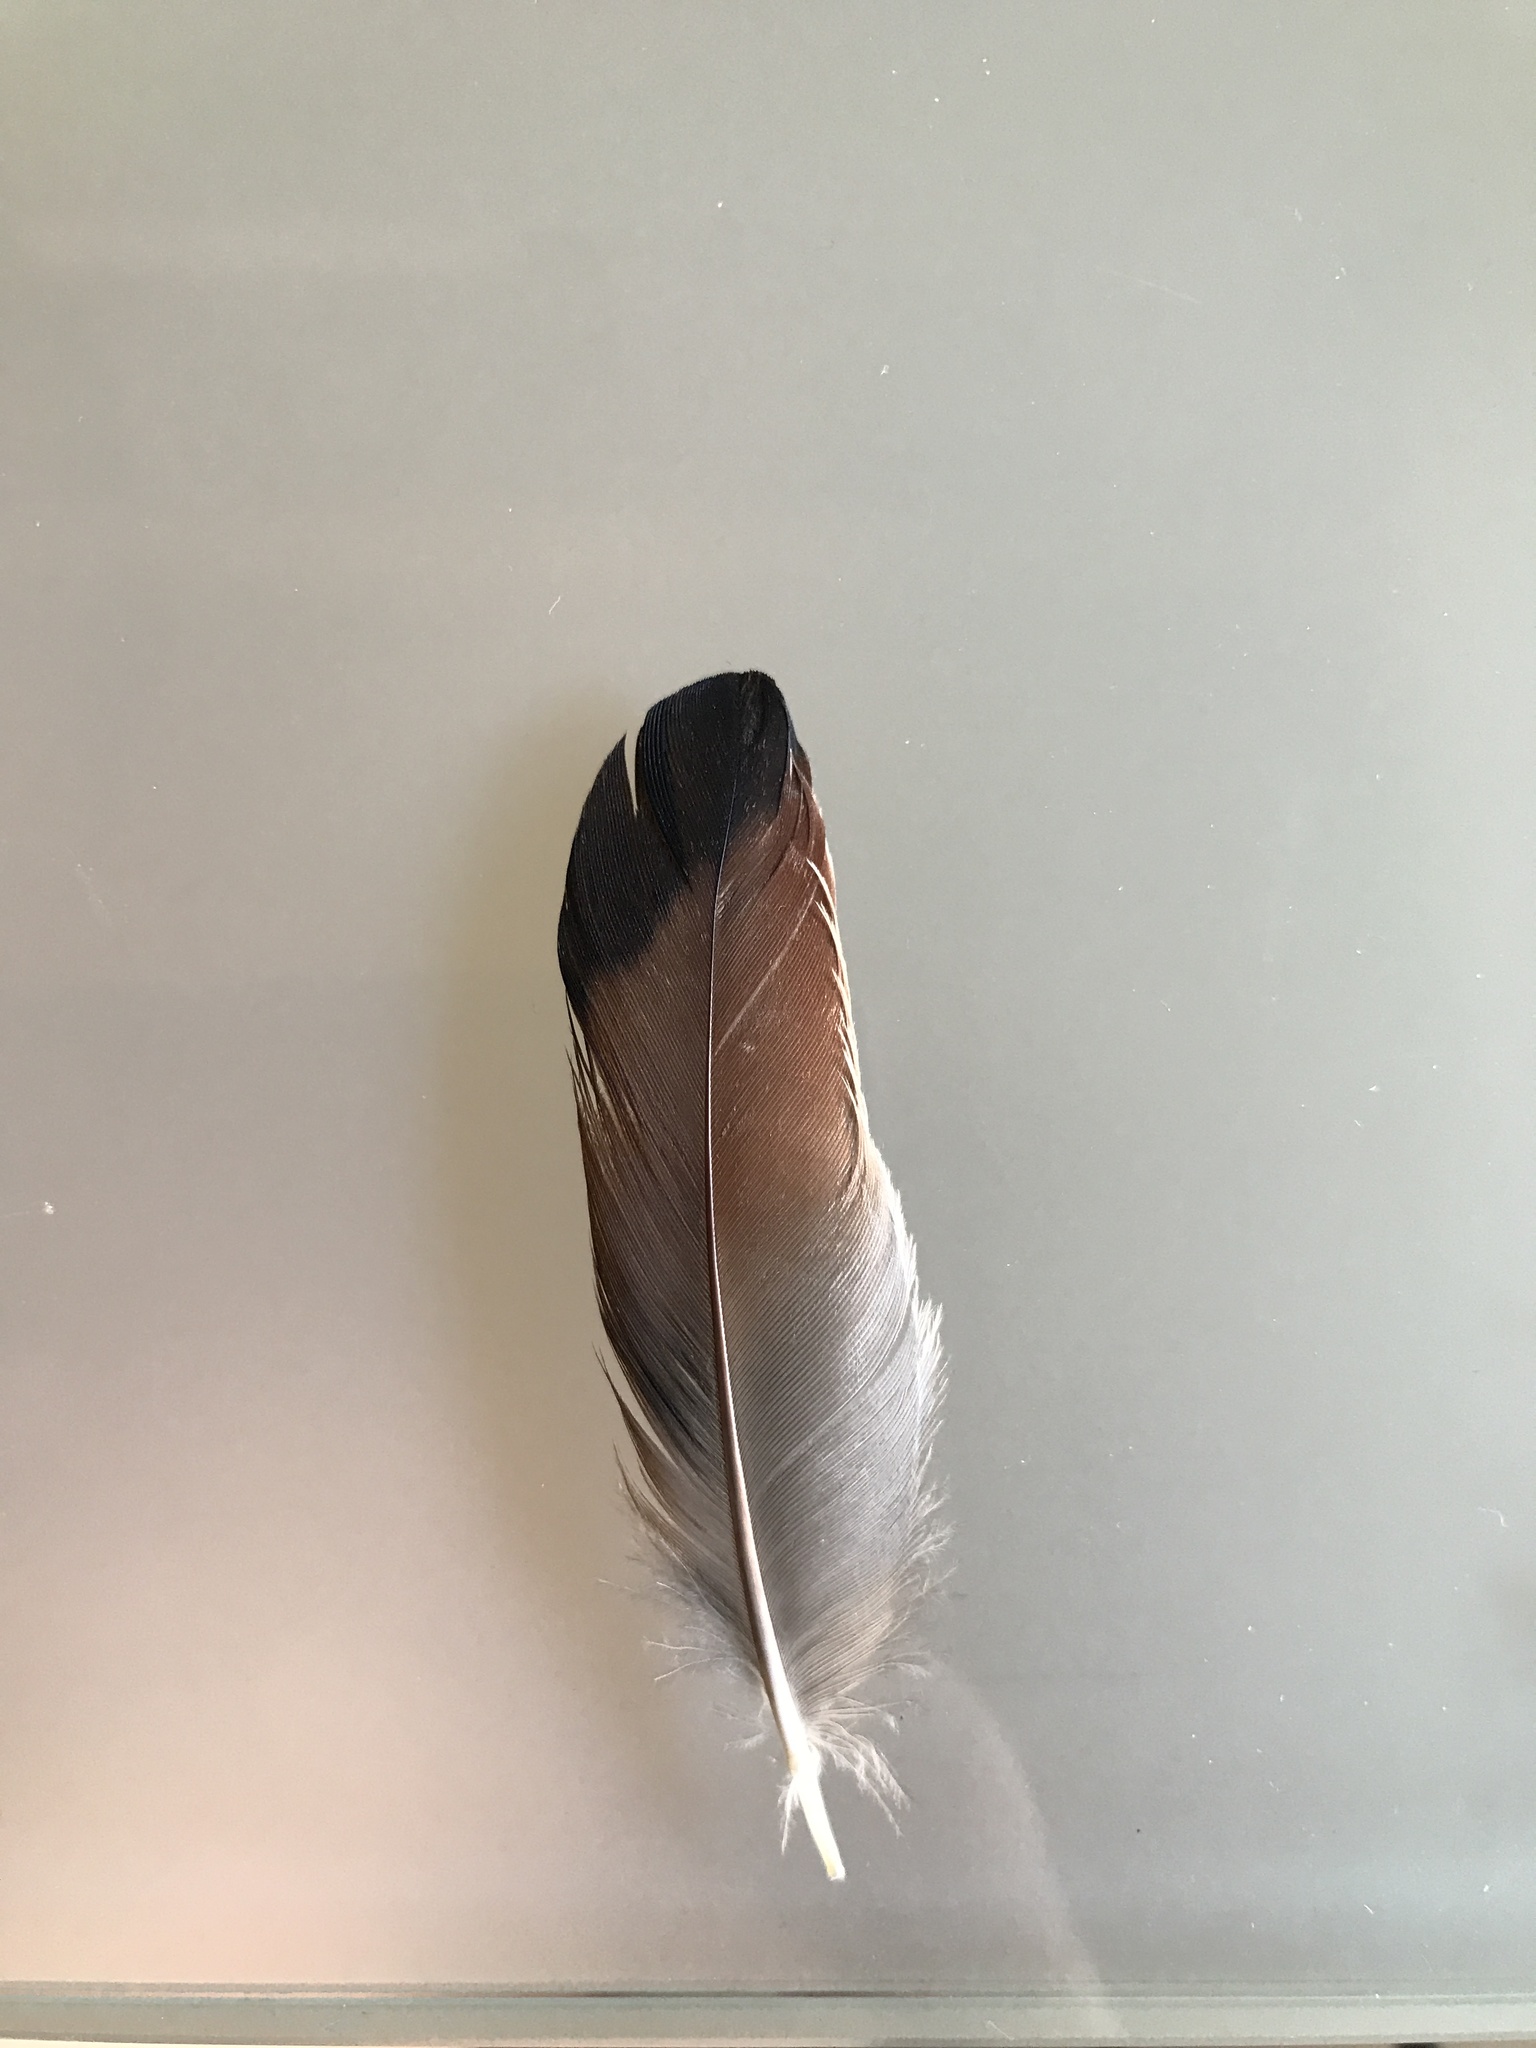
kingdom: Animalia
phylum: Chordata
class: Aves
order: Passeriformes
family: Corvidae
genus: Garrulus
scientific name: Garrulus glandarius
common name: Eurasian jay
